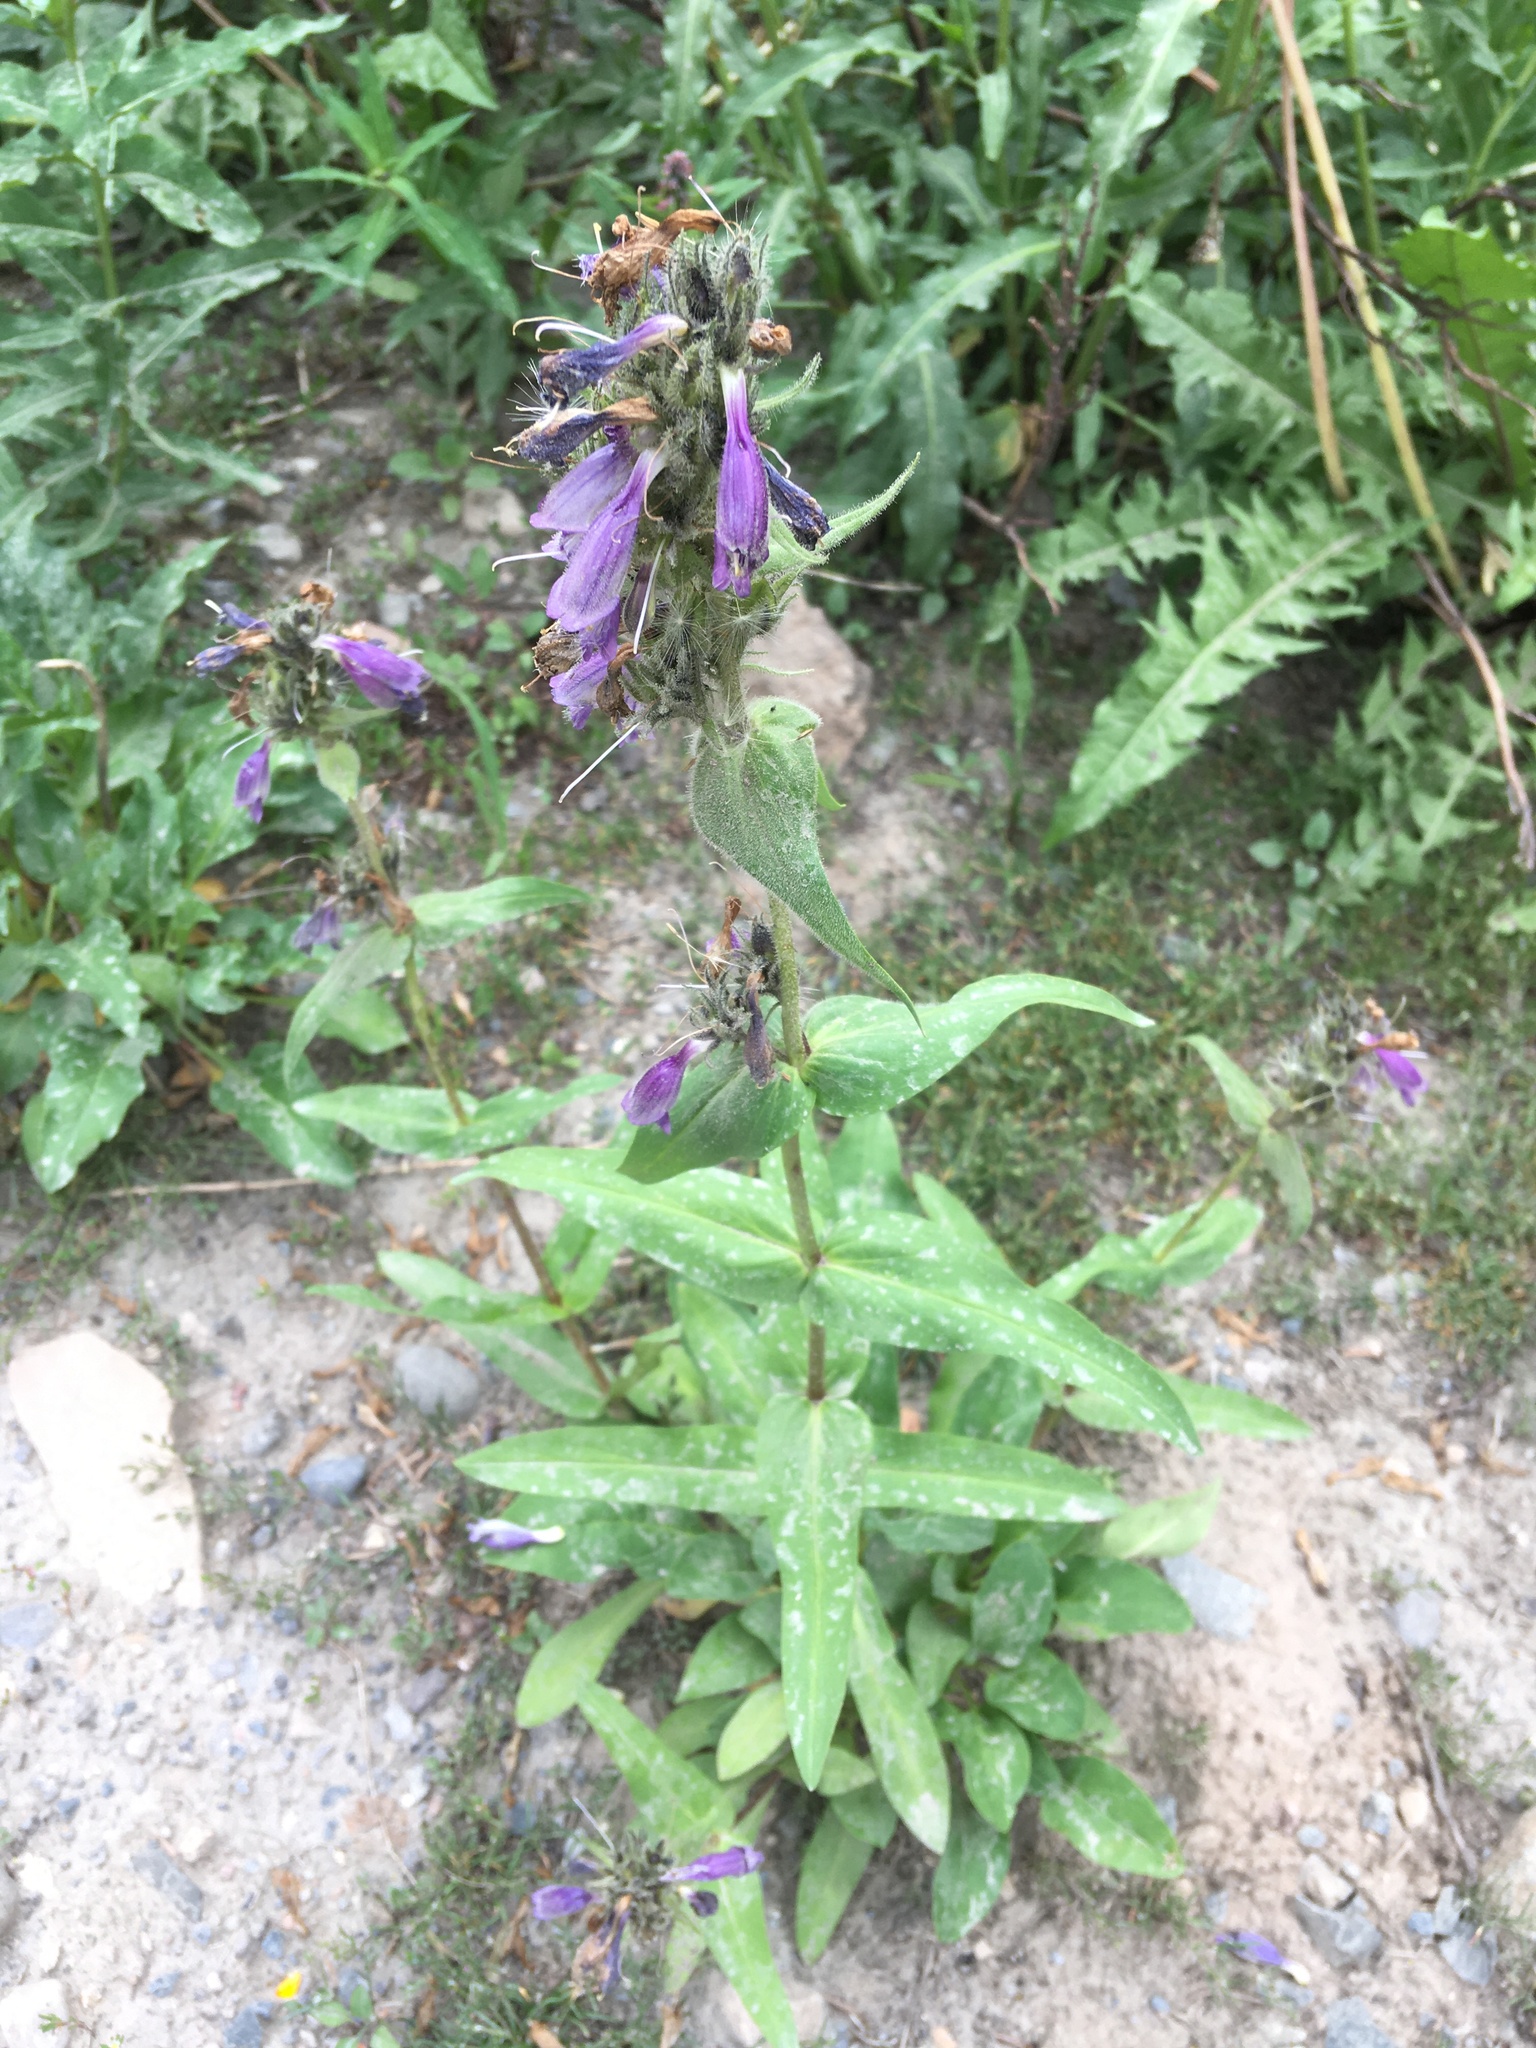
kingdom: Plantae
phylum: Tracheophyta
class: Magnoliopsida
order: Lamiales
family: Plantaginaceae
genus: Penstemon
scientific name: Penstemon whippleanus
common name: Whipple's penstemon
